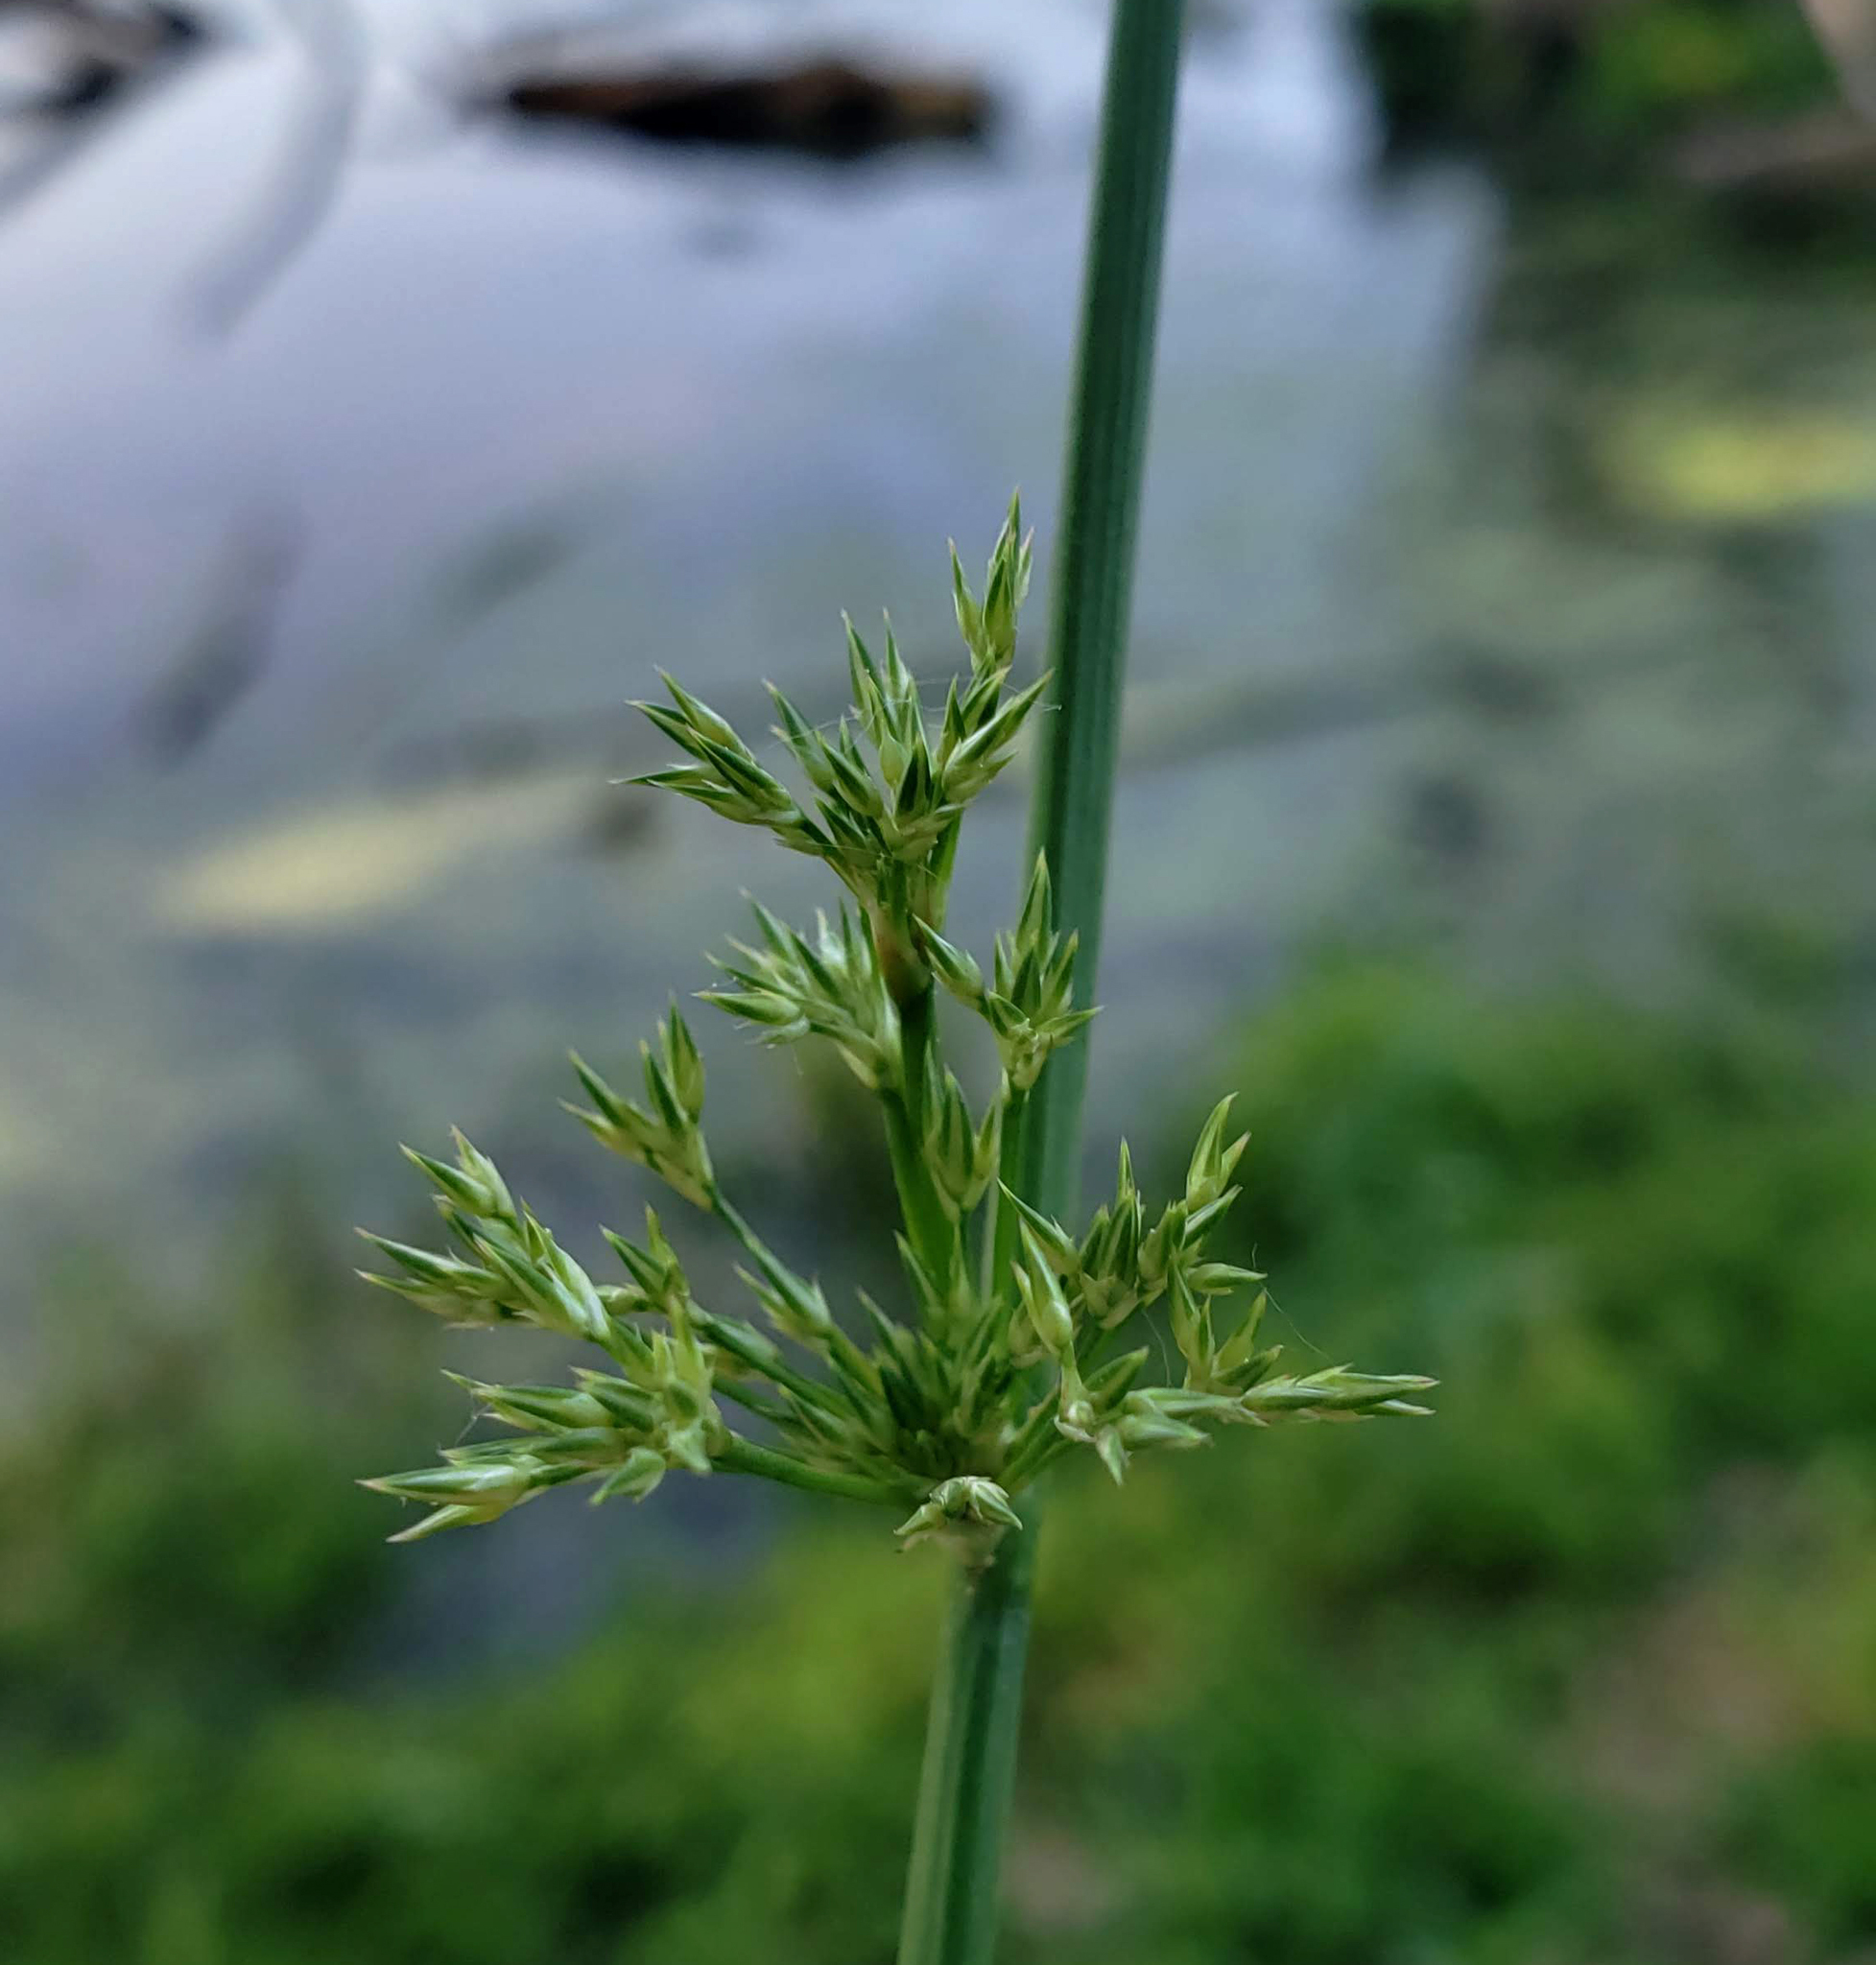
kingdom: Plantae
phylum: Tracheophyta
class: Liliopsida
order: Poales
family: Juncaceae
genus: Juncus
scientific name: Juncus effusus
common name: Soft rush
